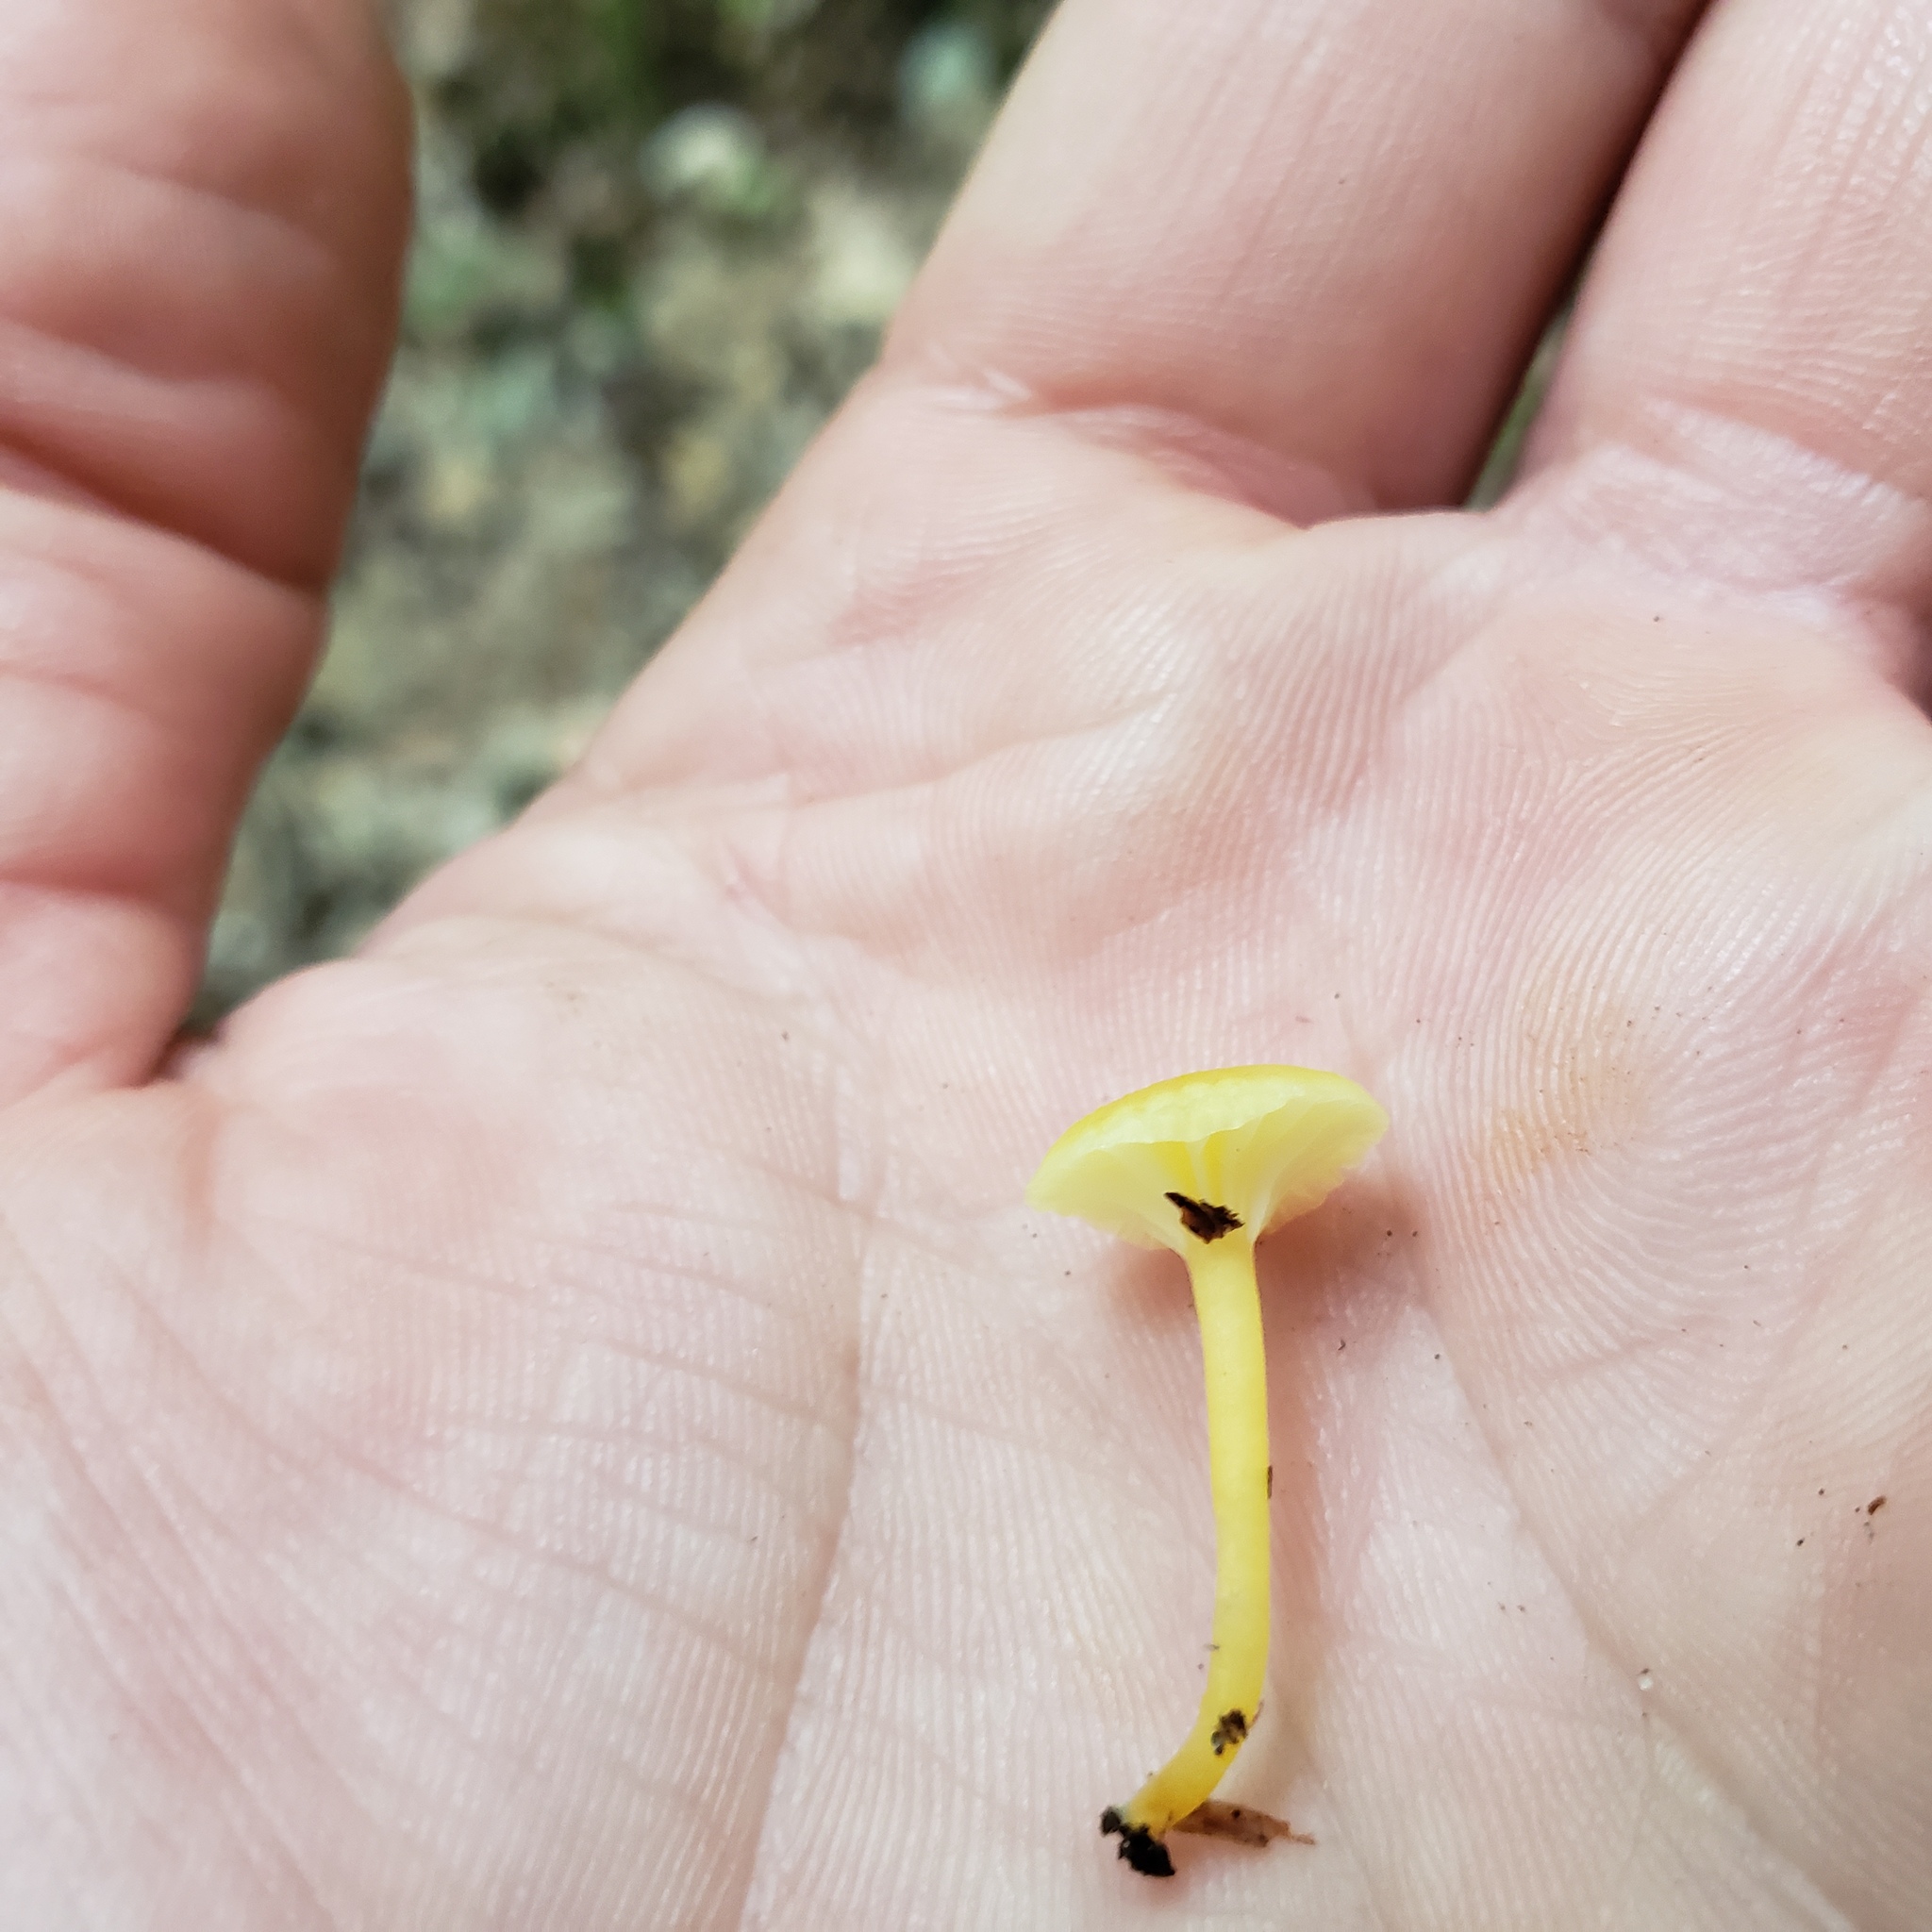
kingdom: Fungi
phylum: Basidiomycota
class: Agaricomycetes
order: Agaricales
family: Hygrophoraceae
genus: Gloioxanthomyces
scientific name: Gloioxanthomyces nitidus
